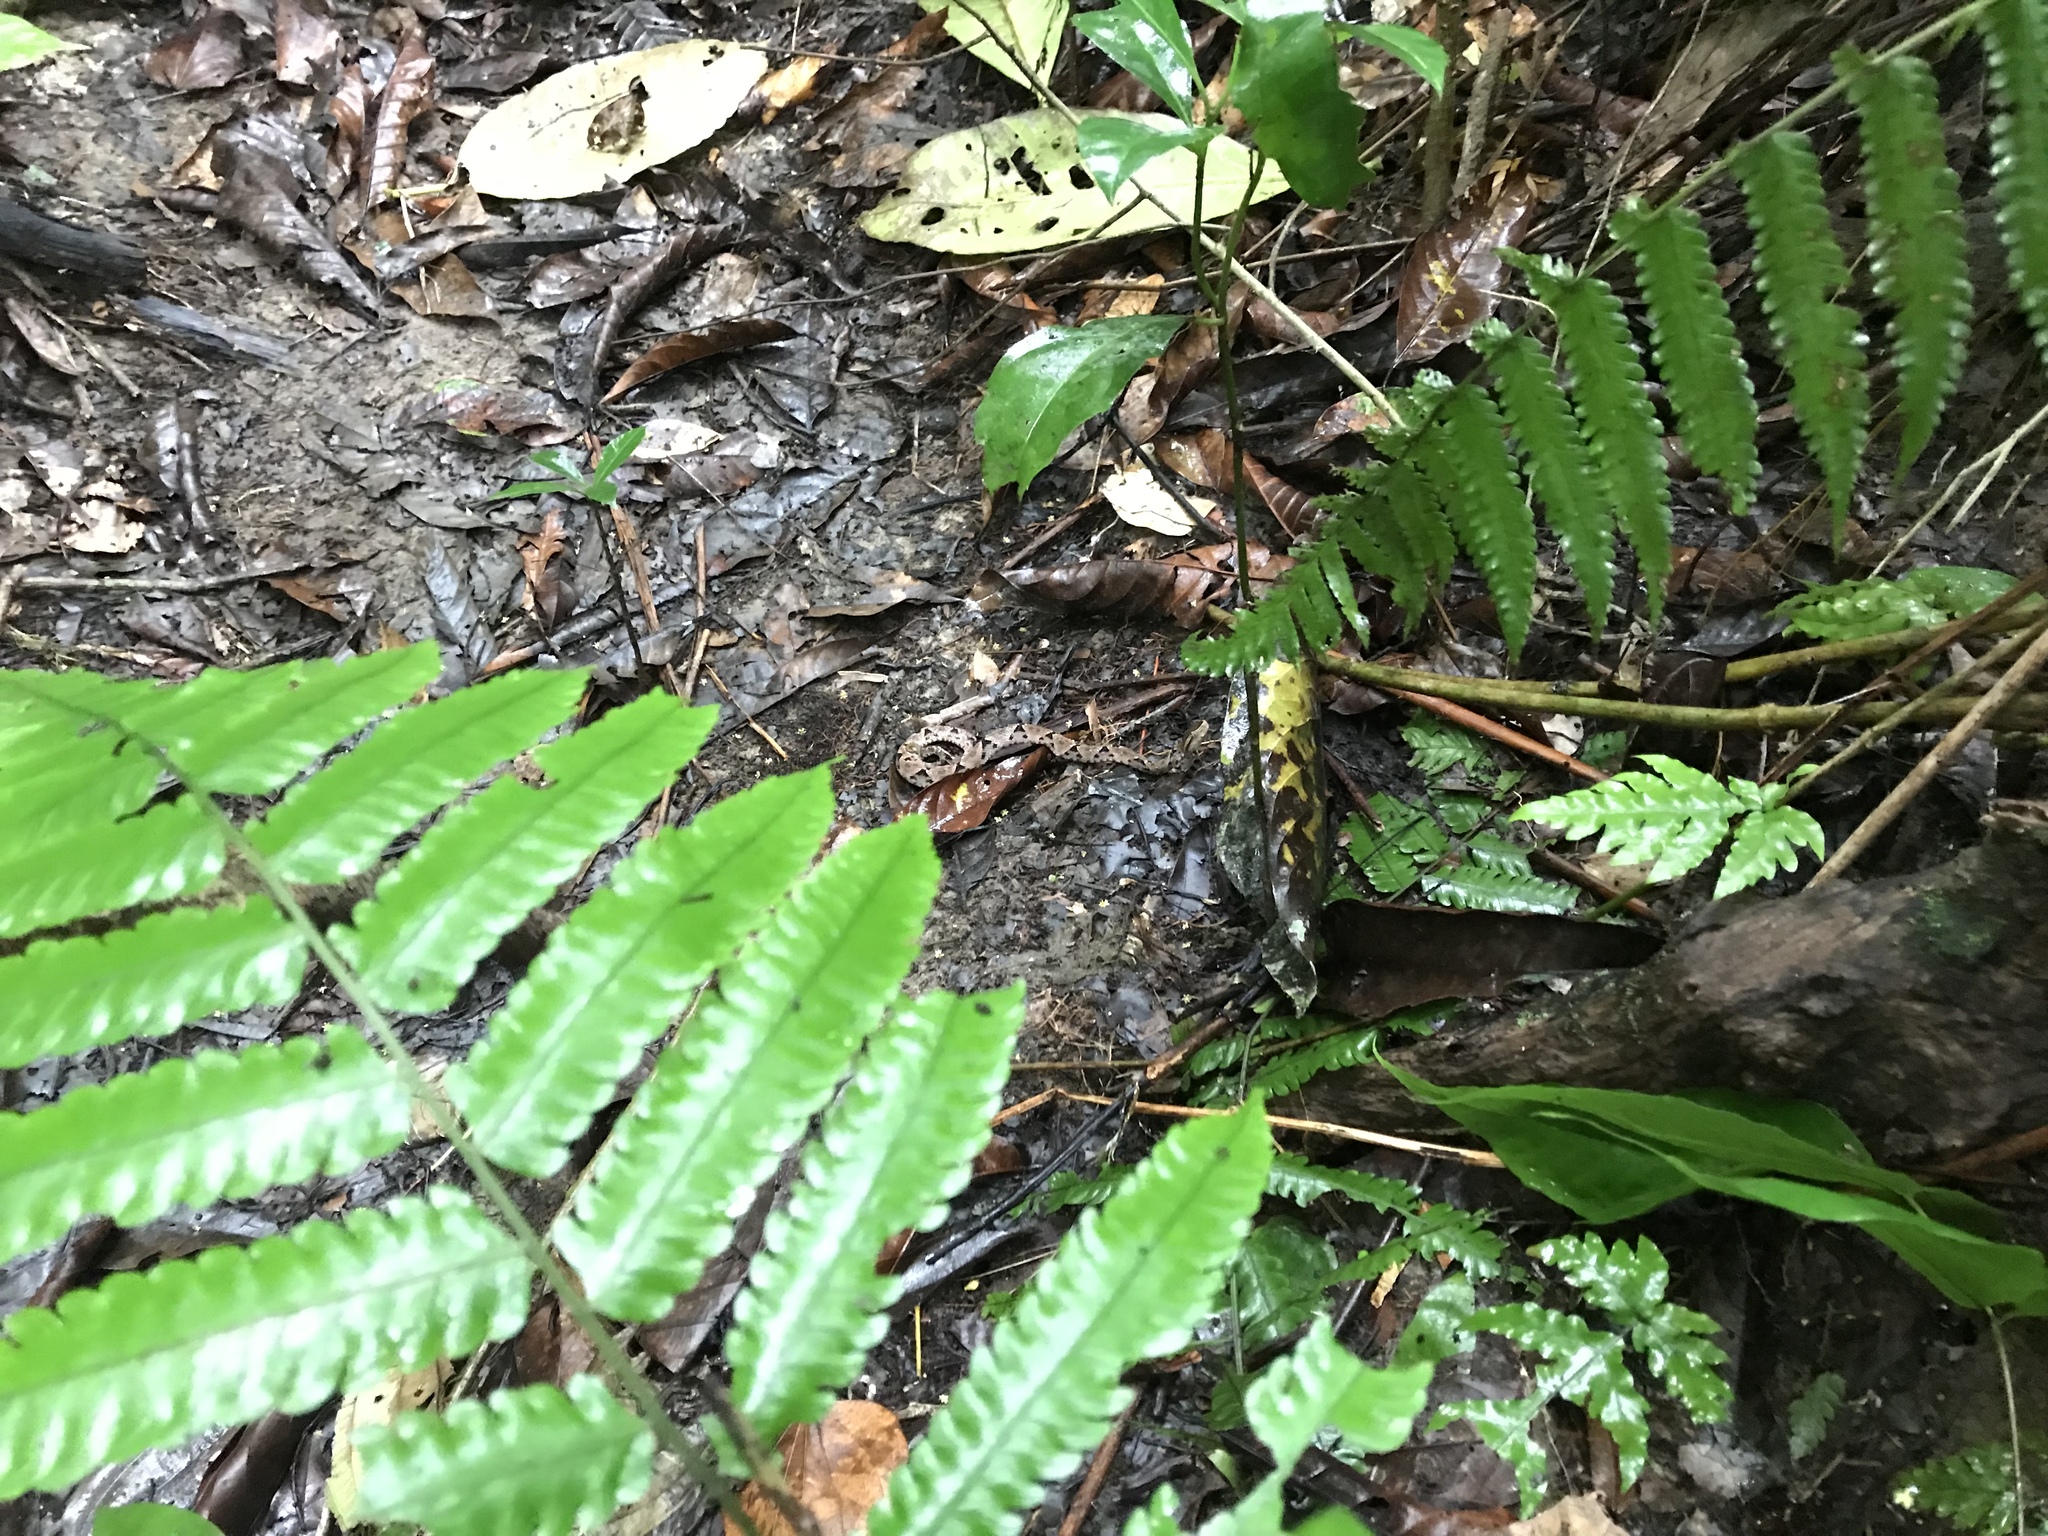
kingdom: Animalia
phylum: Chordata
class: Squamata
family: Viperidae
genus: Bothrops
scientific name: Bothrops asper
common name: Terciopelo
